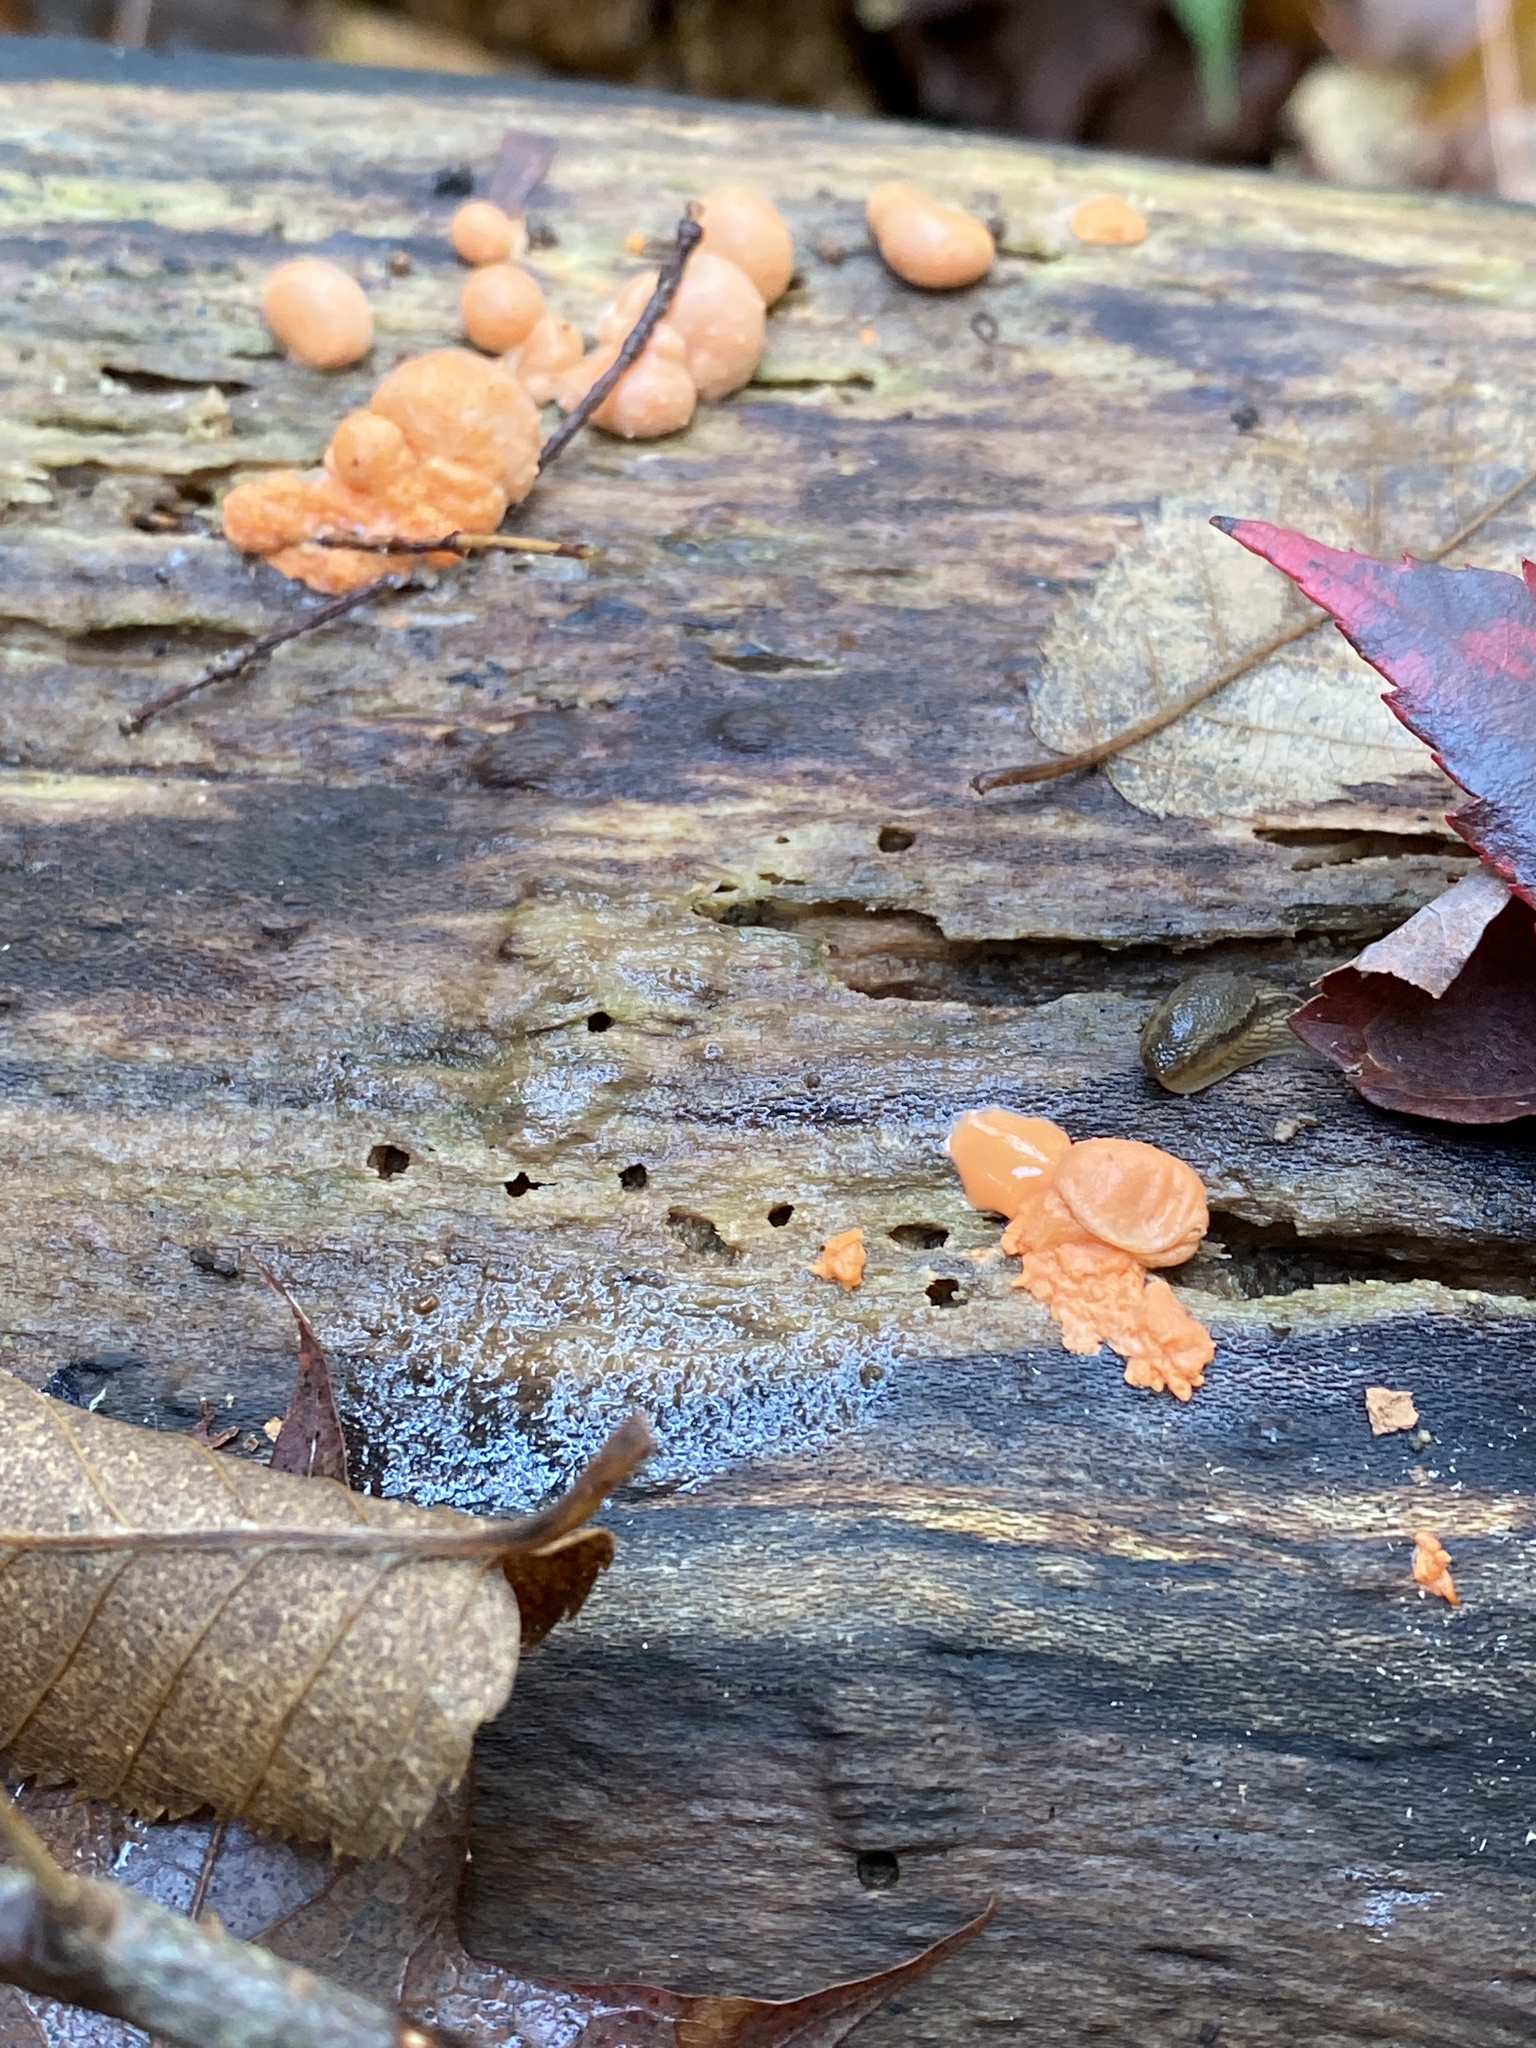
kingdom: Protozoa
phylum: Mycetozoa
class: Myxomycetes
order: Cribrariales
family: Tubiferaceae
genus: Lycogala
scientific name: Lycogala epidendrum
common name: Wolf's milk
